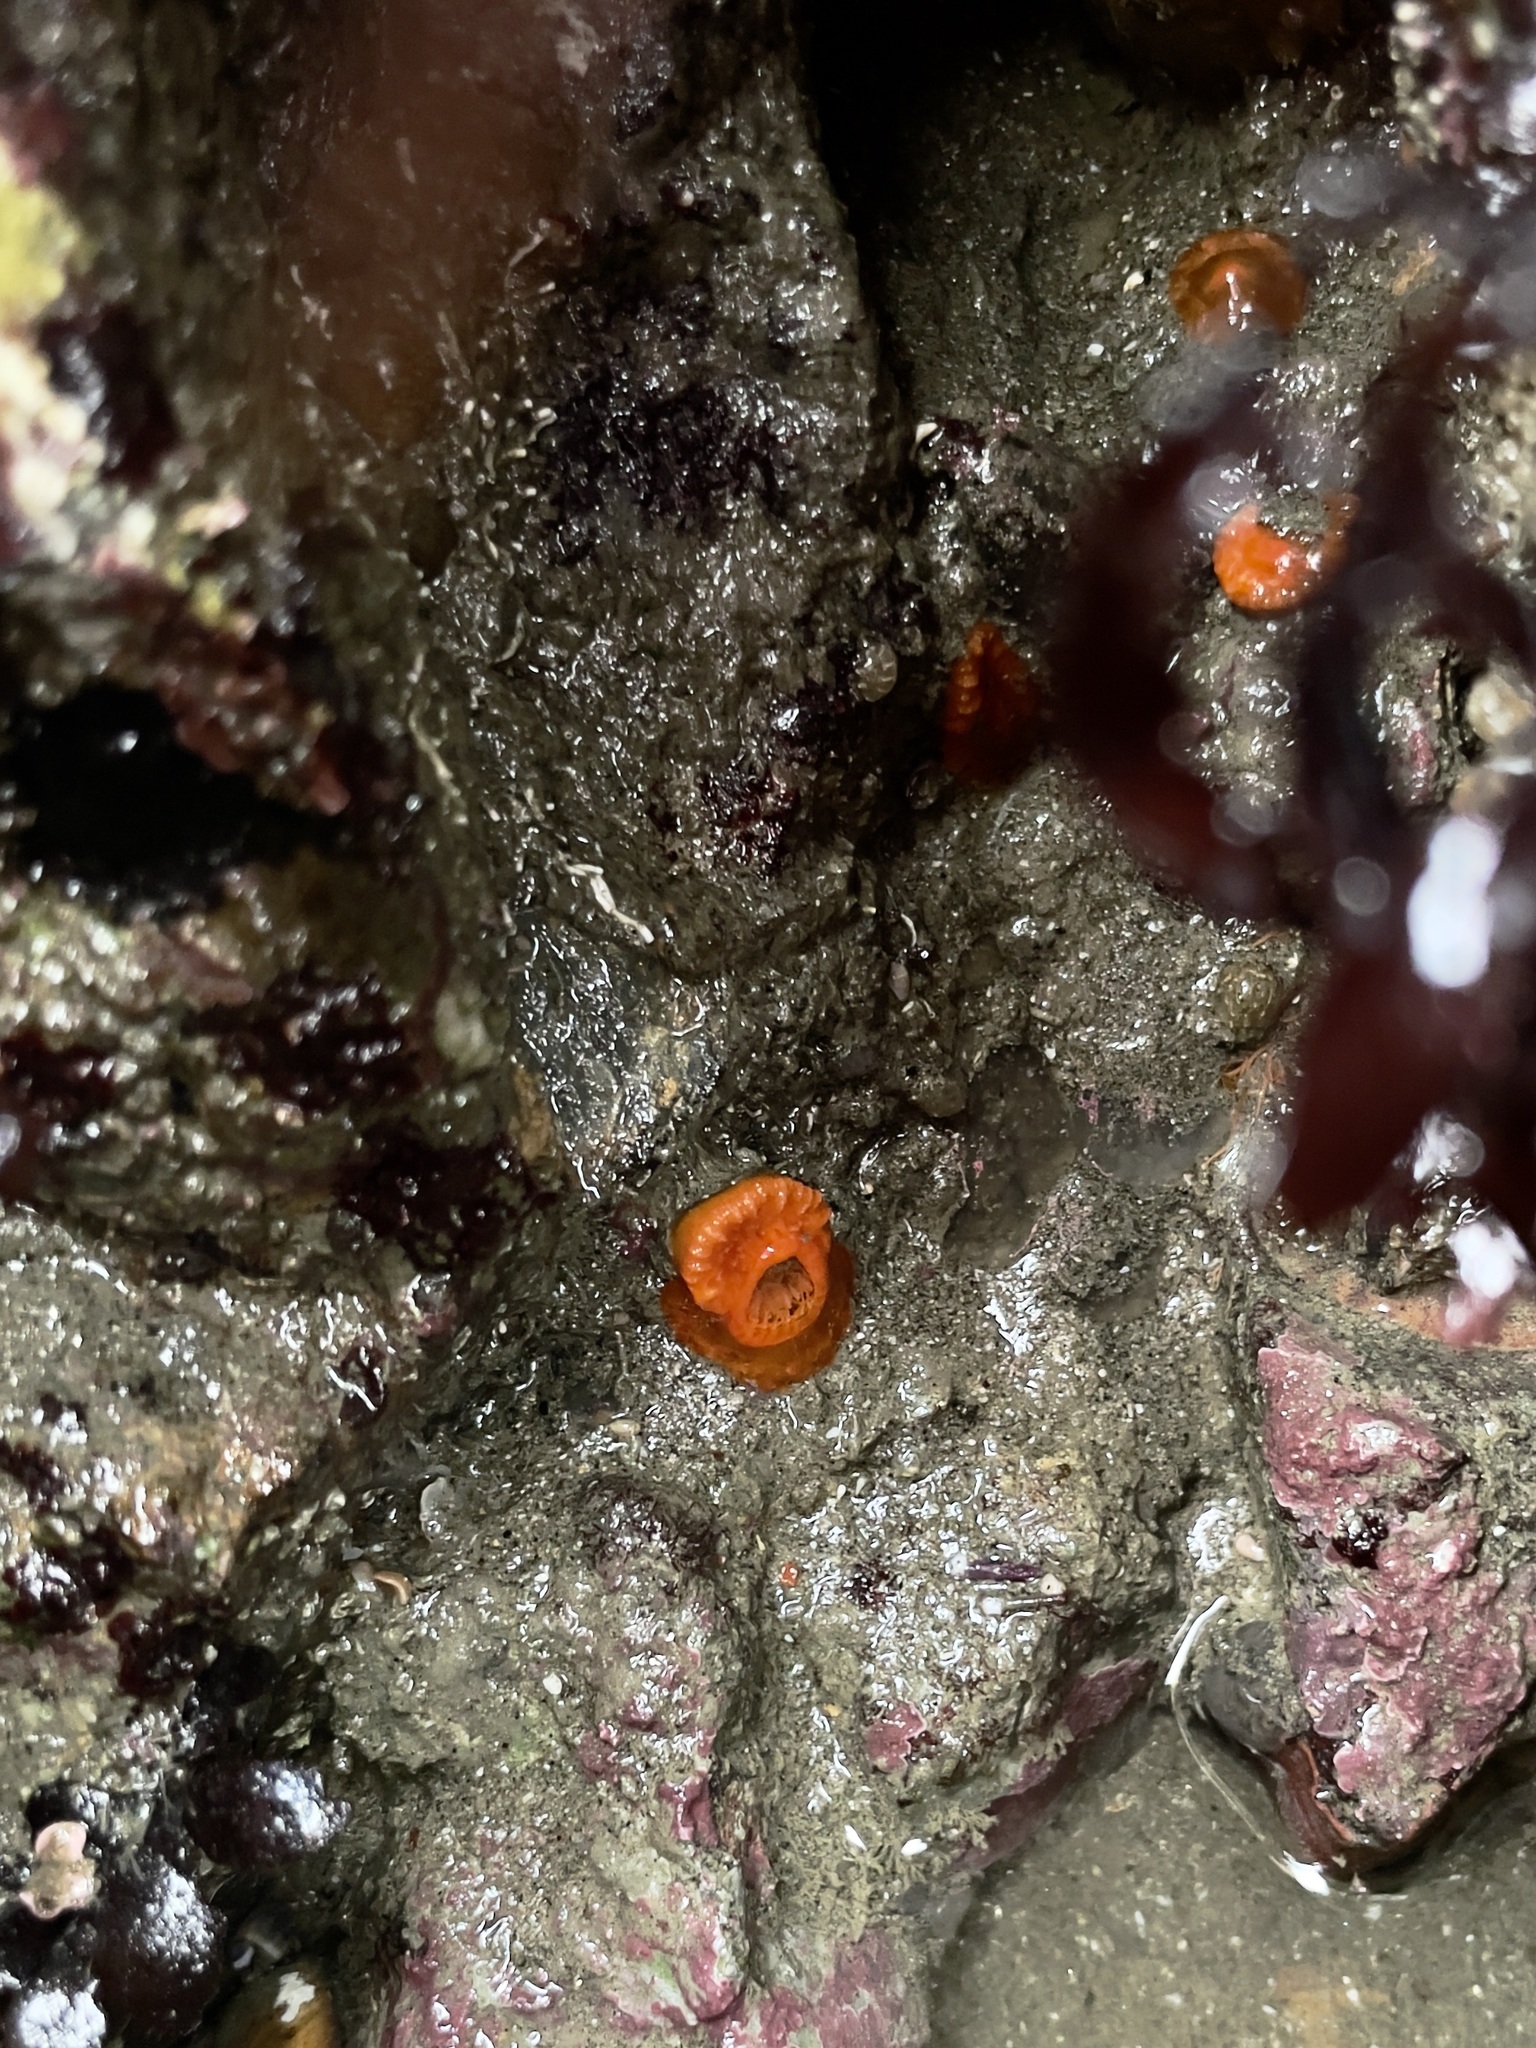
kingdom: Animalia
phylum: Cnidaria
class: Anthozoa
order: Scleractinia
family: Dendrophylliidae
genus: Balanophyllia
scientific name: Balanophyllia elegans
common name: Orange stony coral
